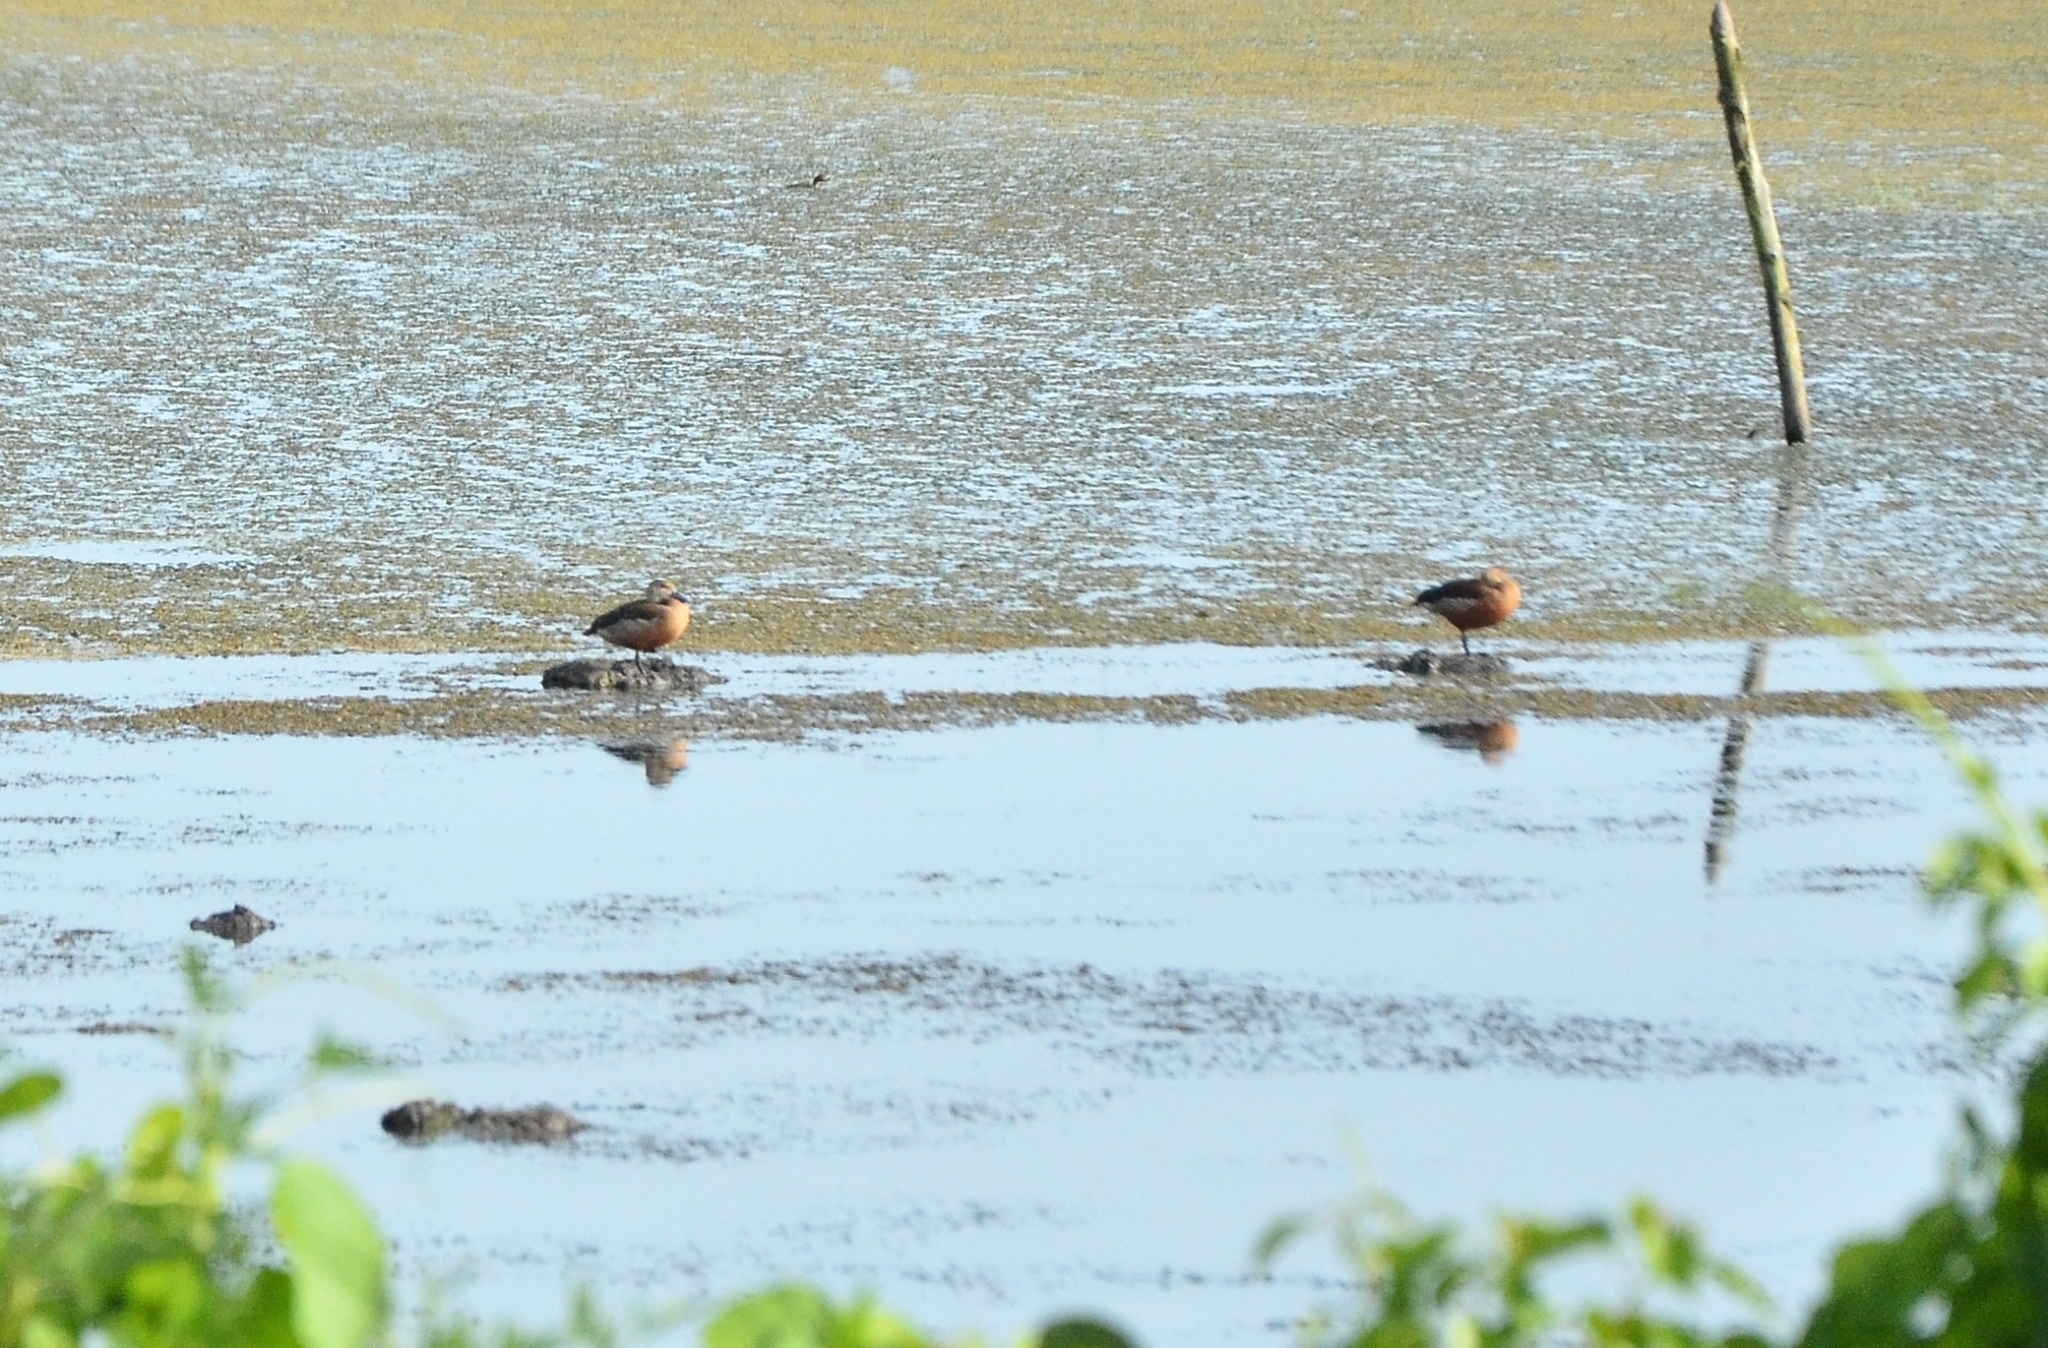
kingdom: Animalia
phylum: Chordata
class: Aves
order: Anseriformes
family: Anatidae
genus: Dendrocygna
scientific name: Dendrocygna javanica
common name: Lesser whistling-duck
